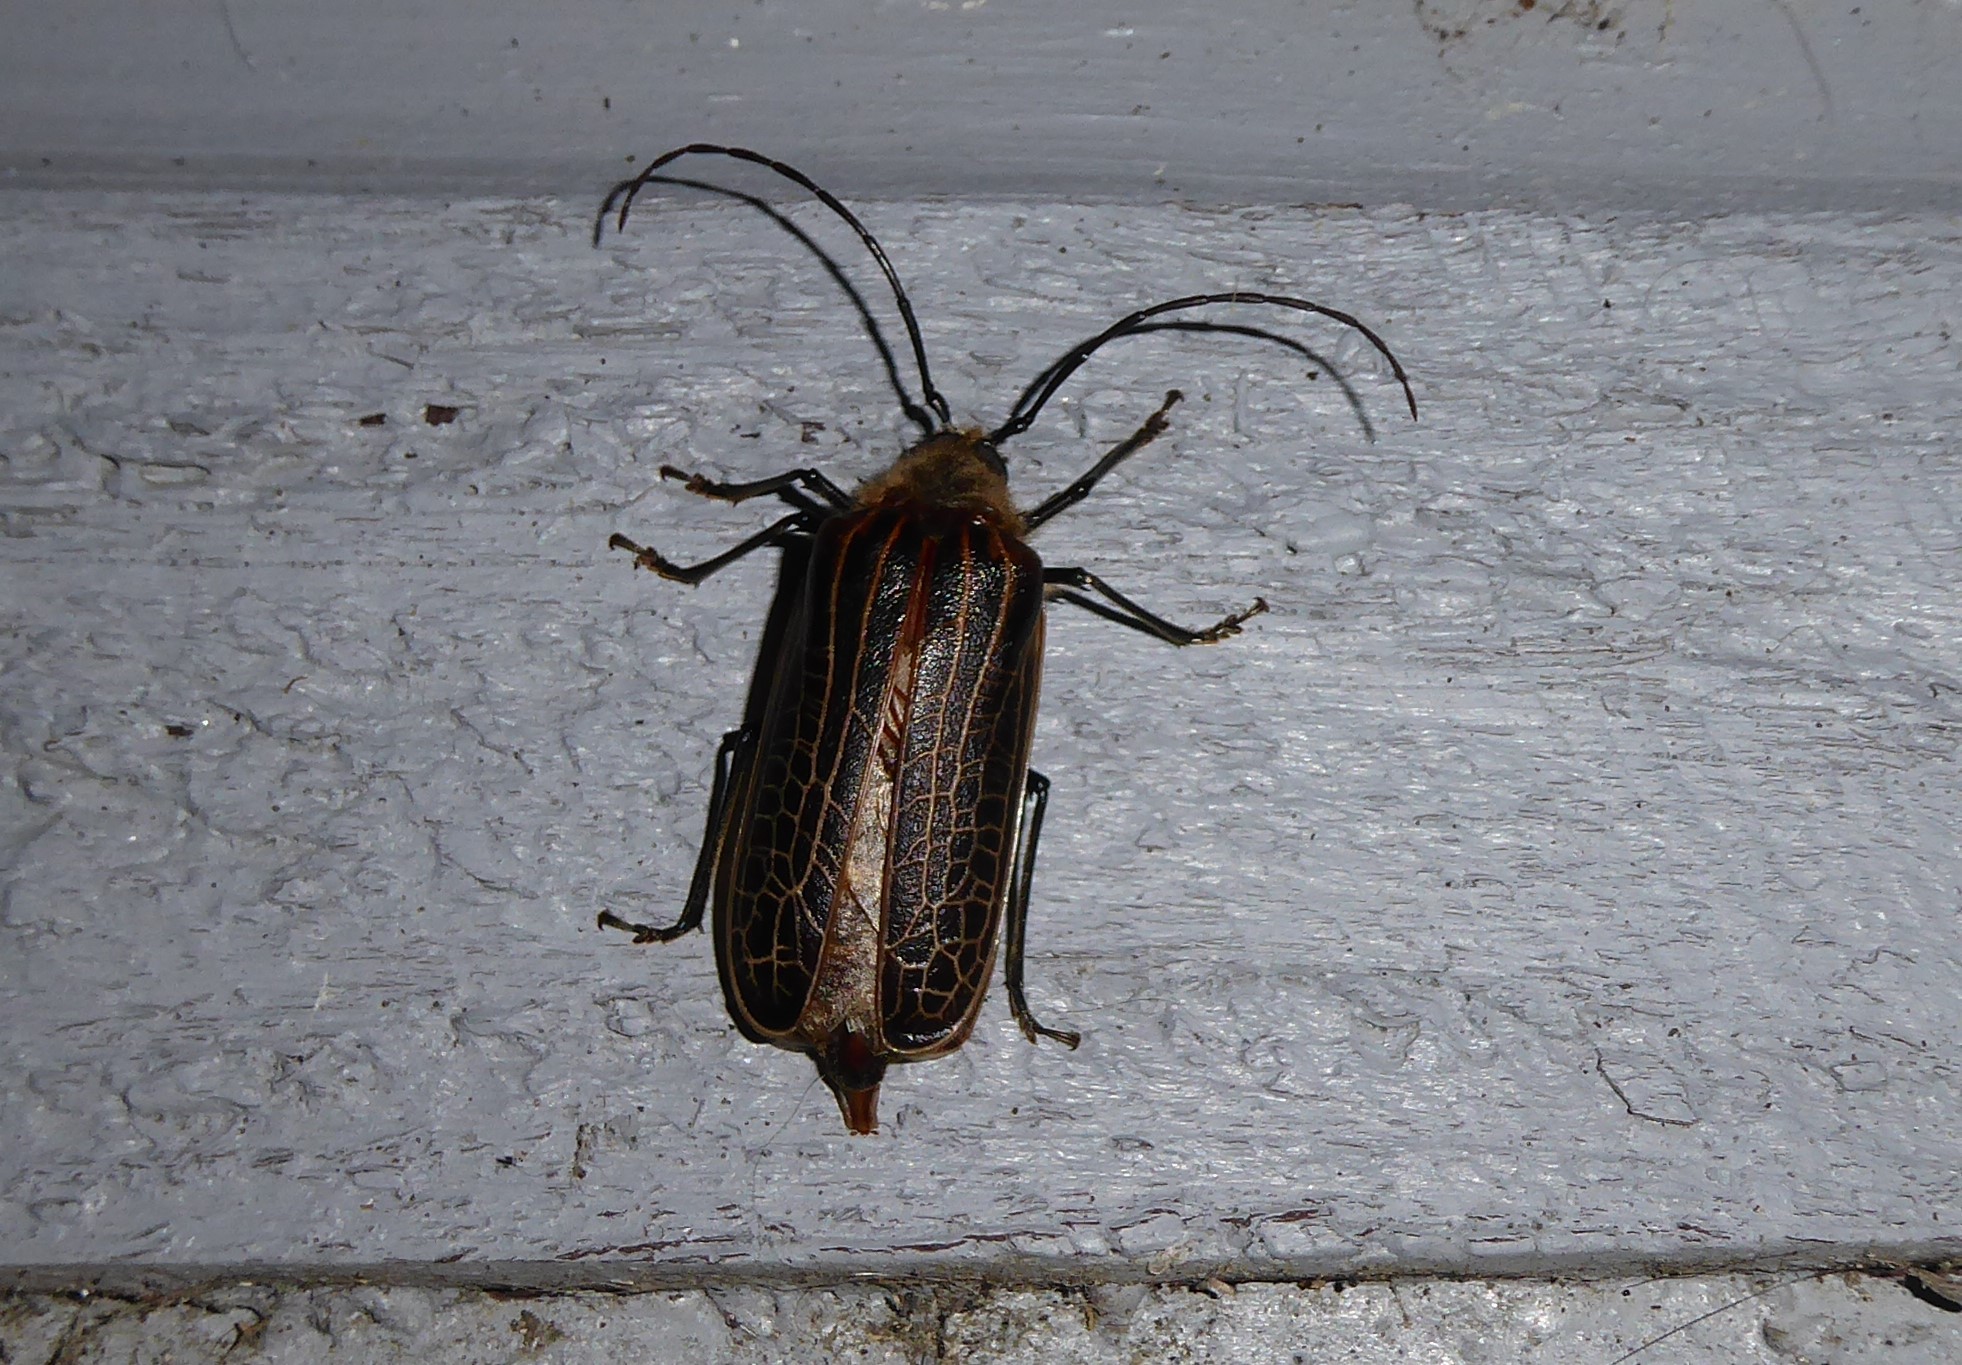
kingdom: Animalia
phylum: Arthropoda
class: Insecta
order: Coleoptera
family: Cerambycidae
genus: Prionoplus
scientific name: Prionoplus reticularis
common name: Huhu beetle
